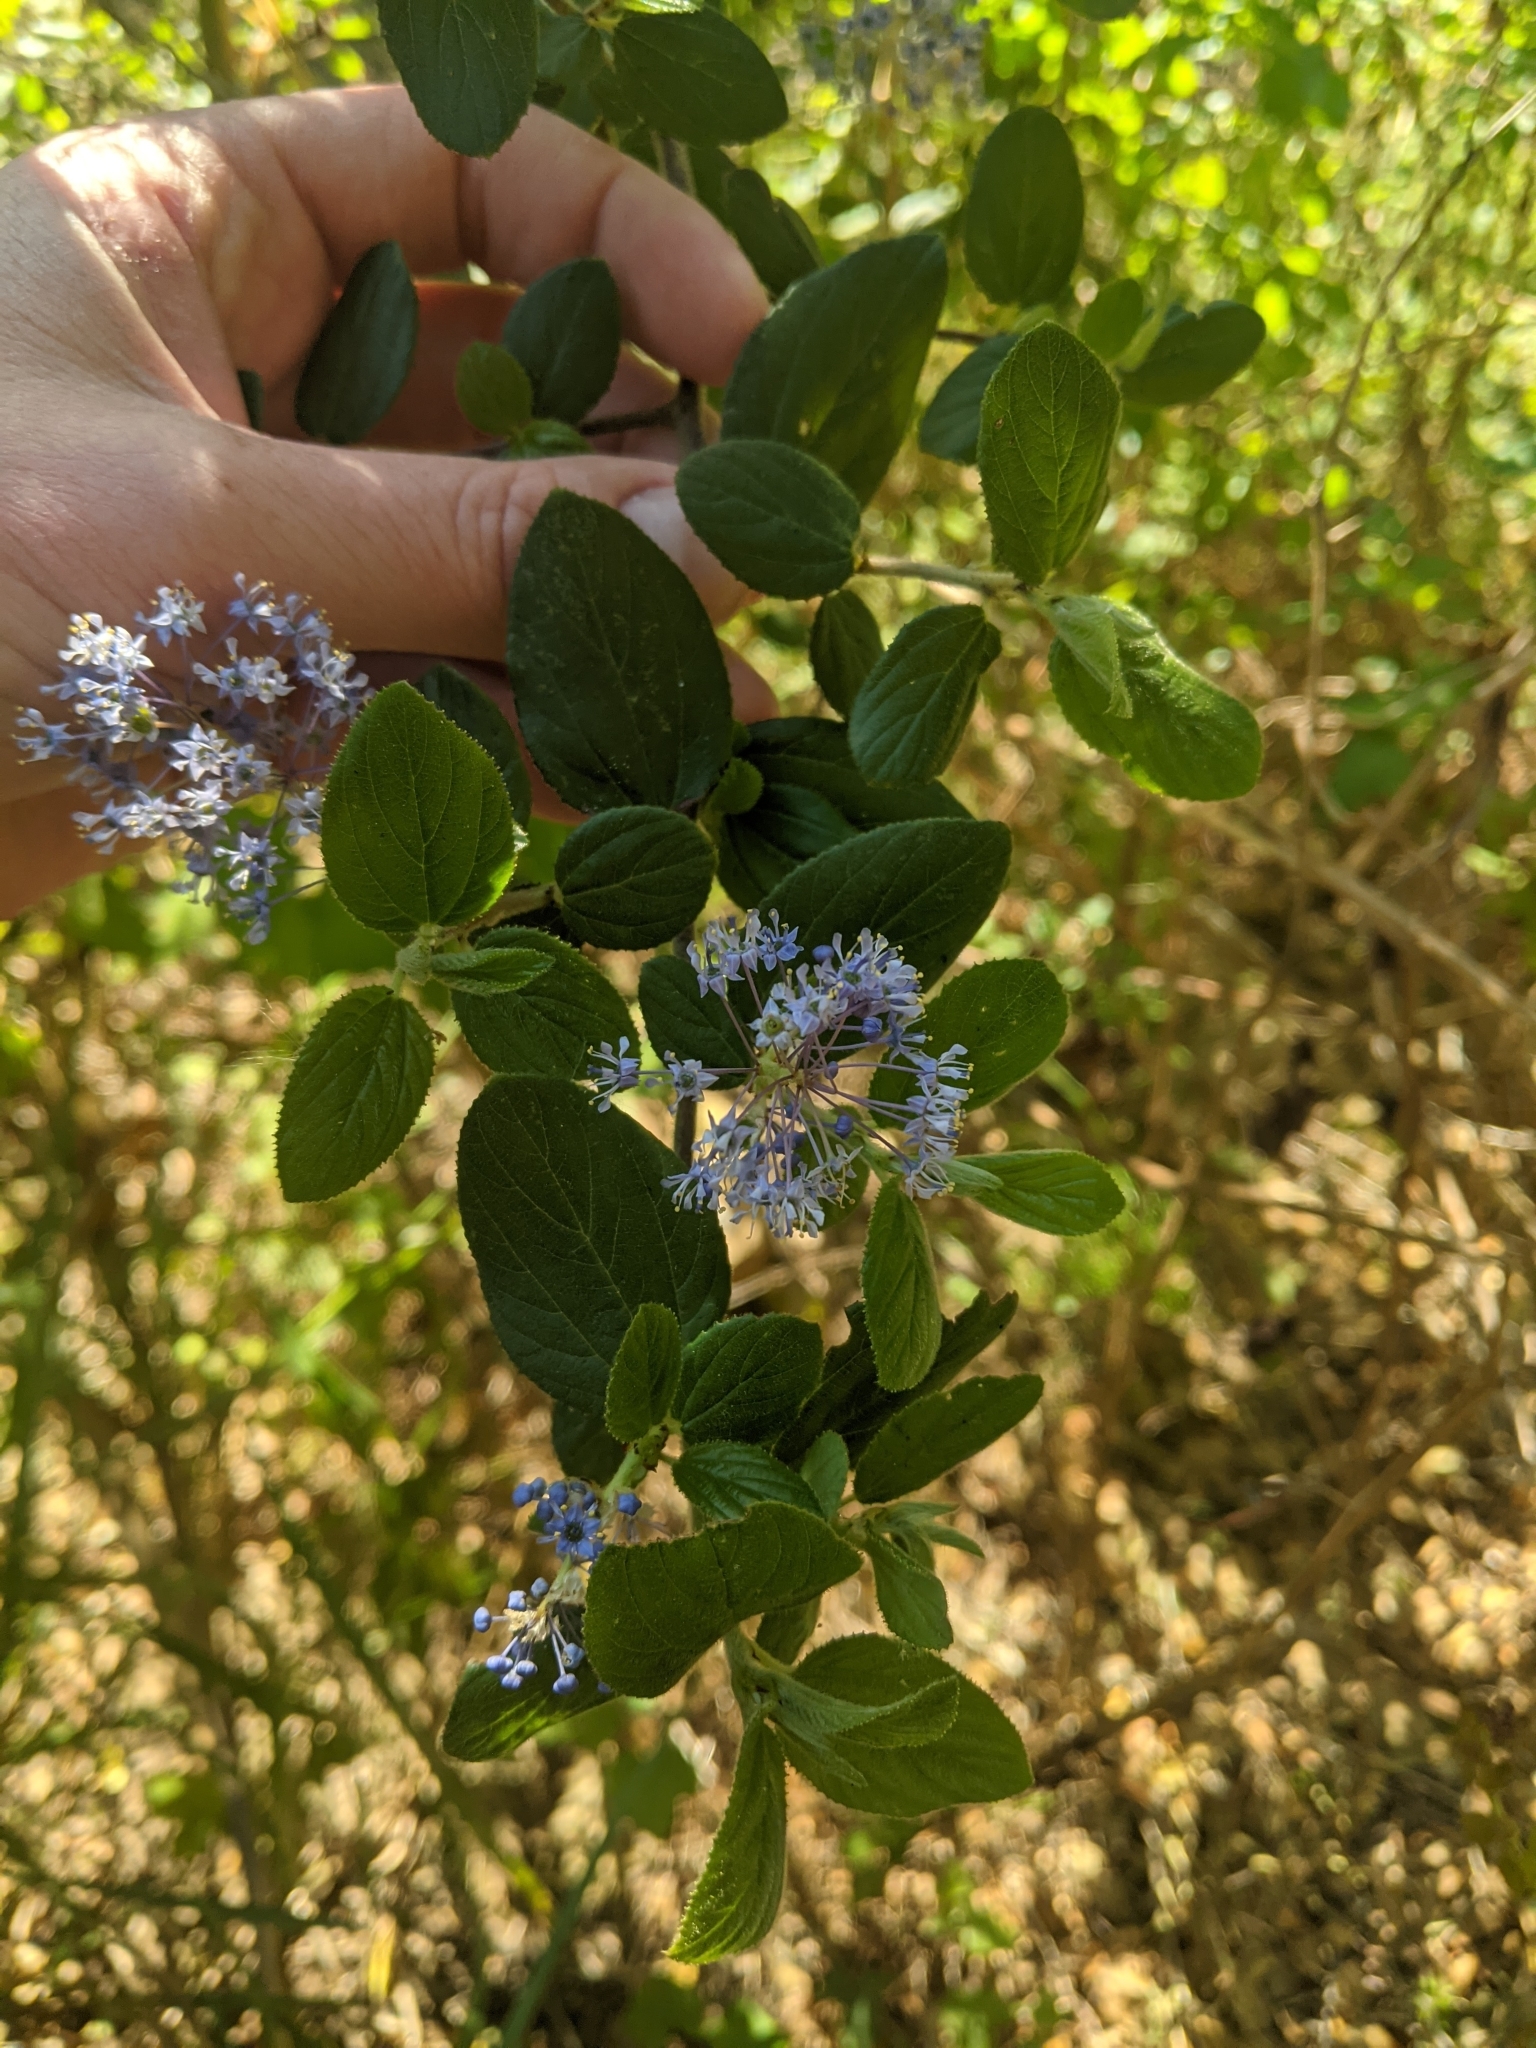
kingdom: Plantae
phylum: Tracheophyta
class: Magnoliopsida
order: Rosales
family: Rhamnaceae
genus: Ceanothus
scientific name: Ceanothus oliganthus
